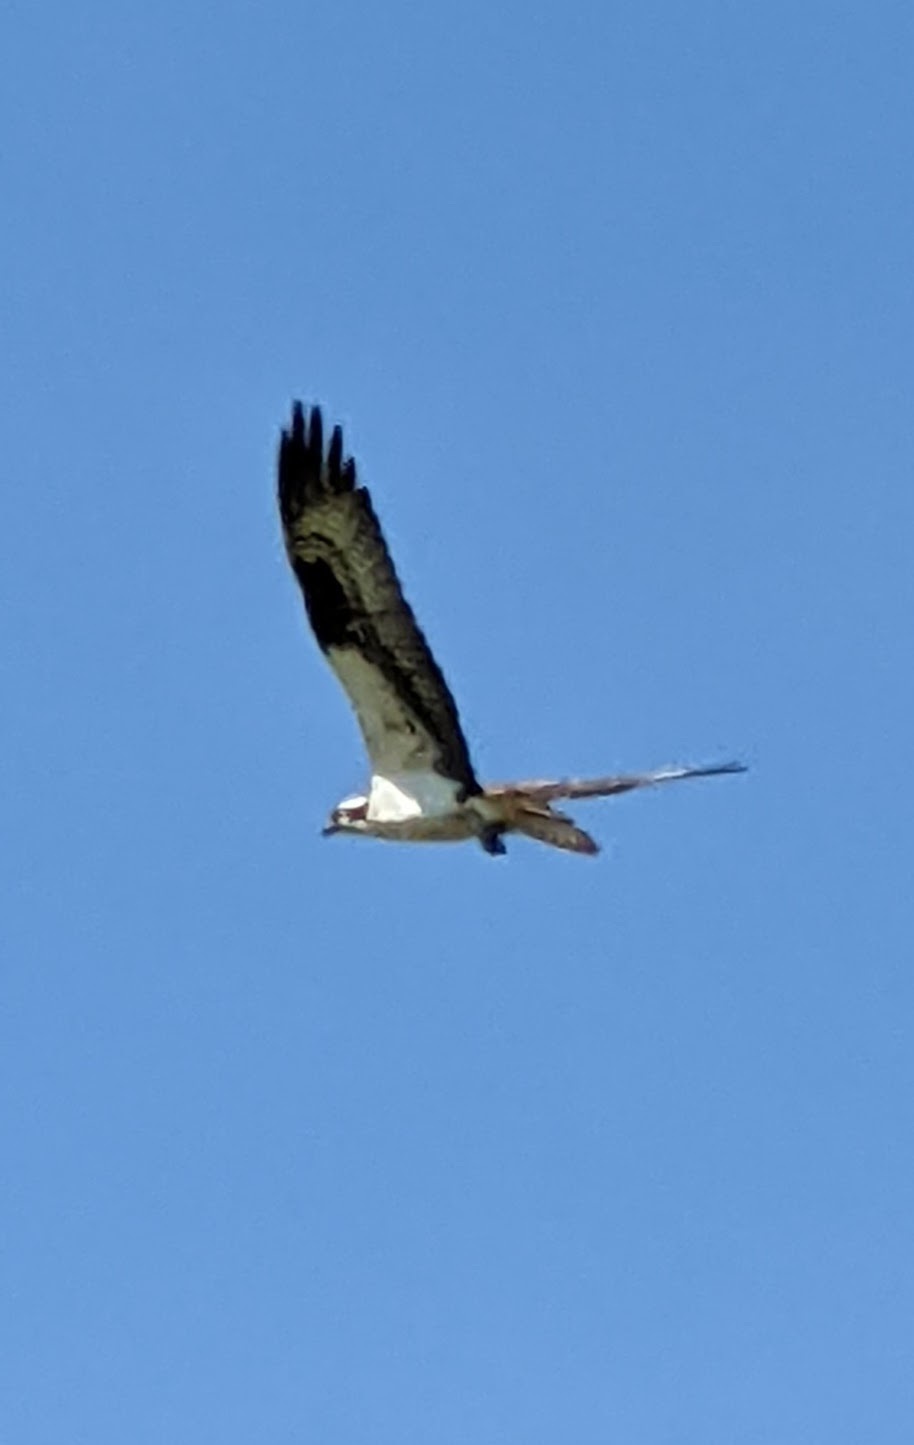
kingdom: Animalia
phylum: Chordata
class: Aves
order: Accipitriformes
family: Pandionidae
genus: Pandion
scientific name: Pandion haliaetus
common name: Osprey
